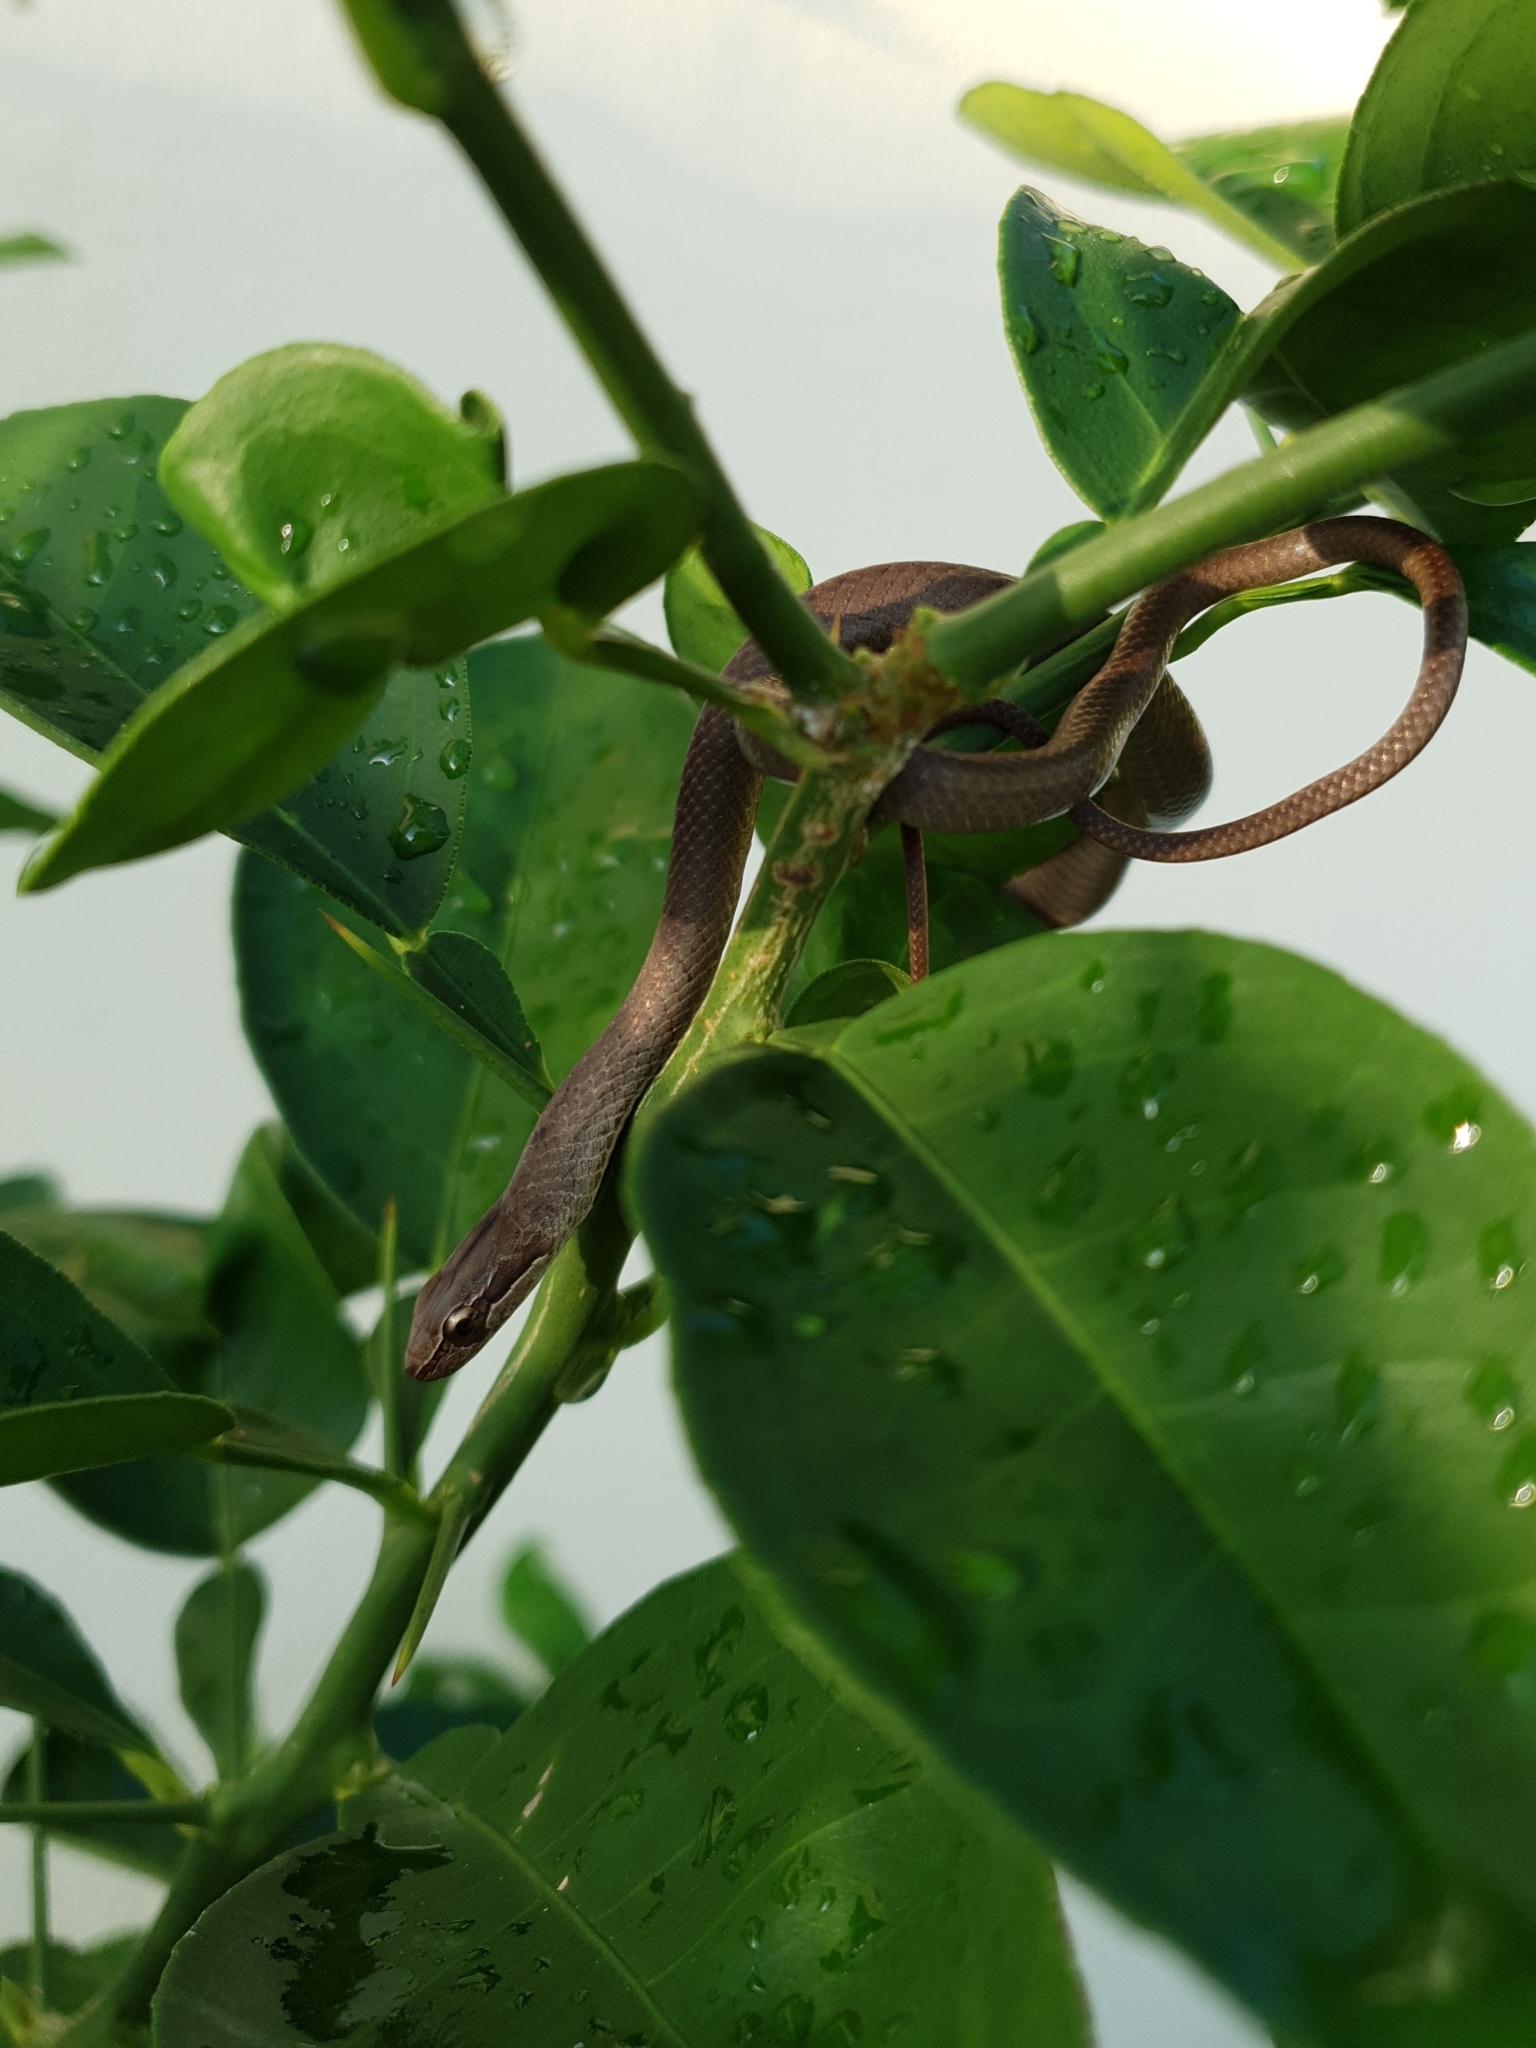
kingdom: Animalia
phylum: Chordata
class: Squamata
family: Colubridae
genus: Cubophis
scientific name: Cubophis caymanus
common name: Black snake
